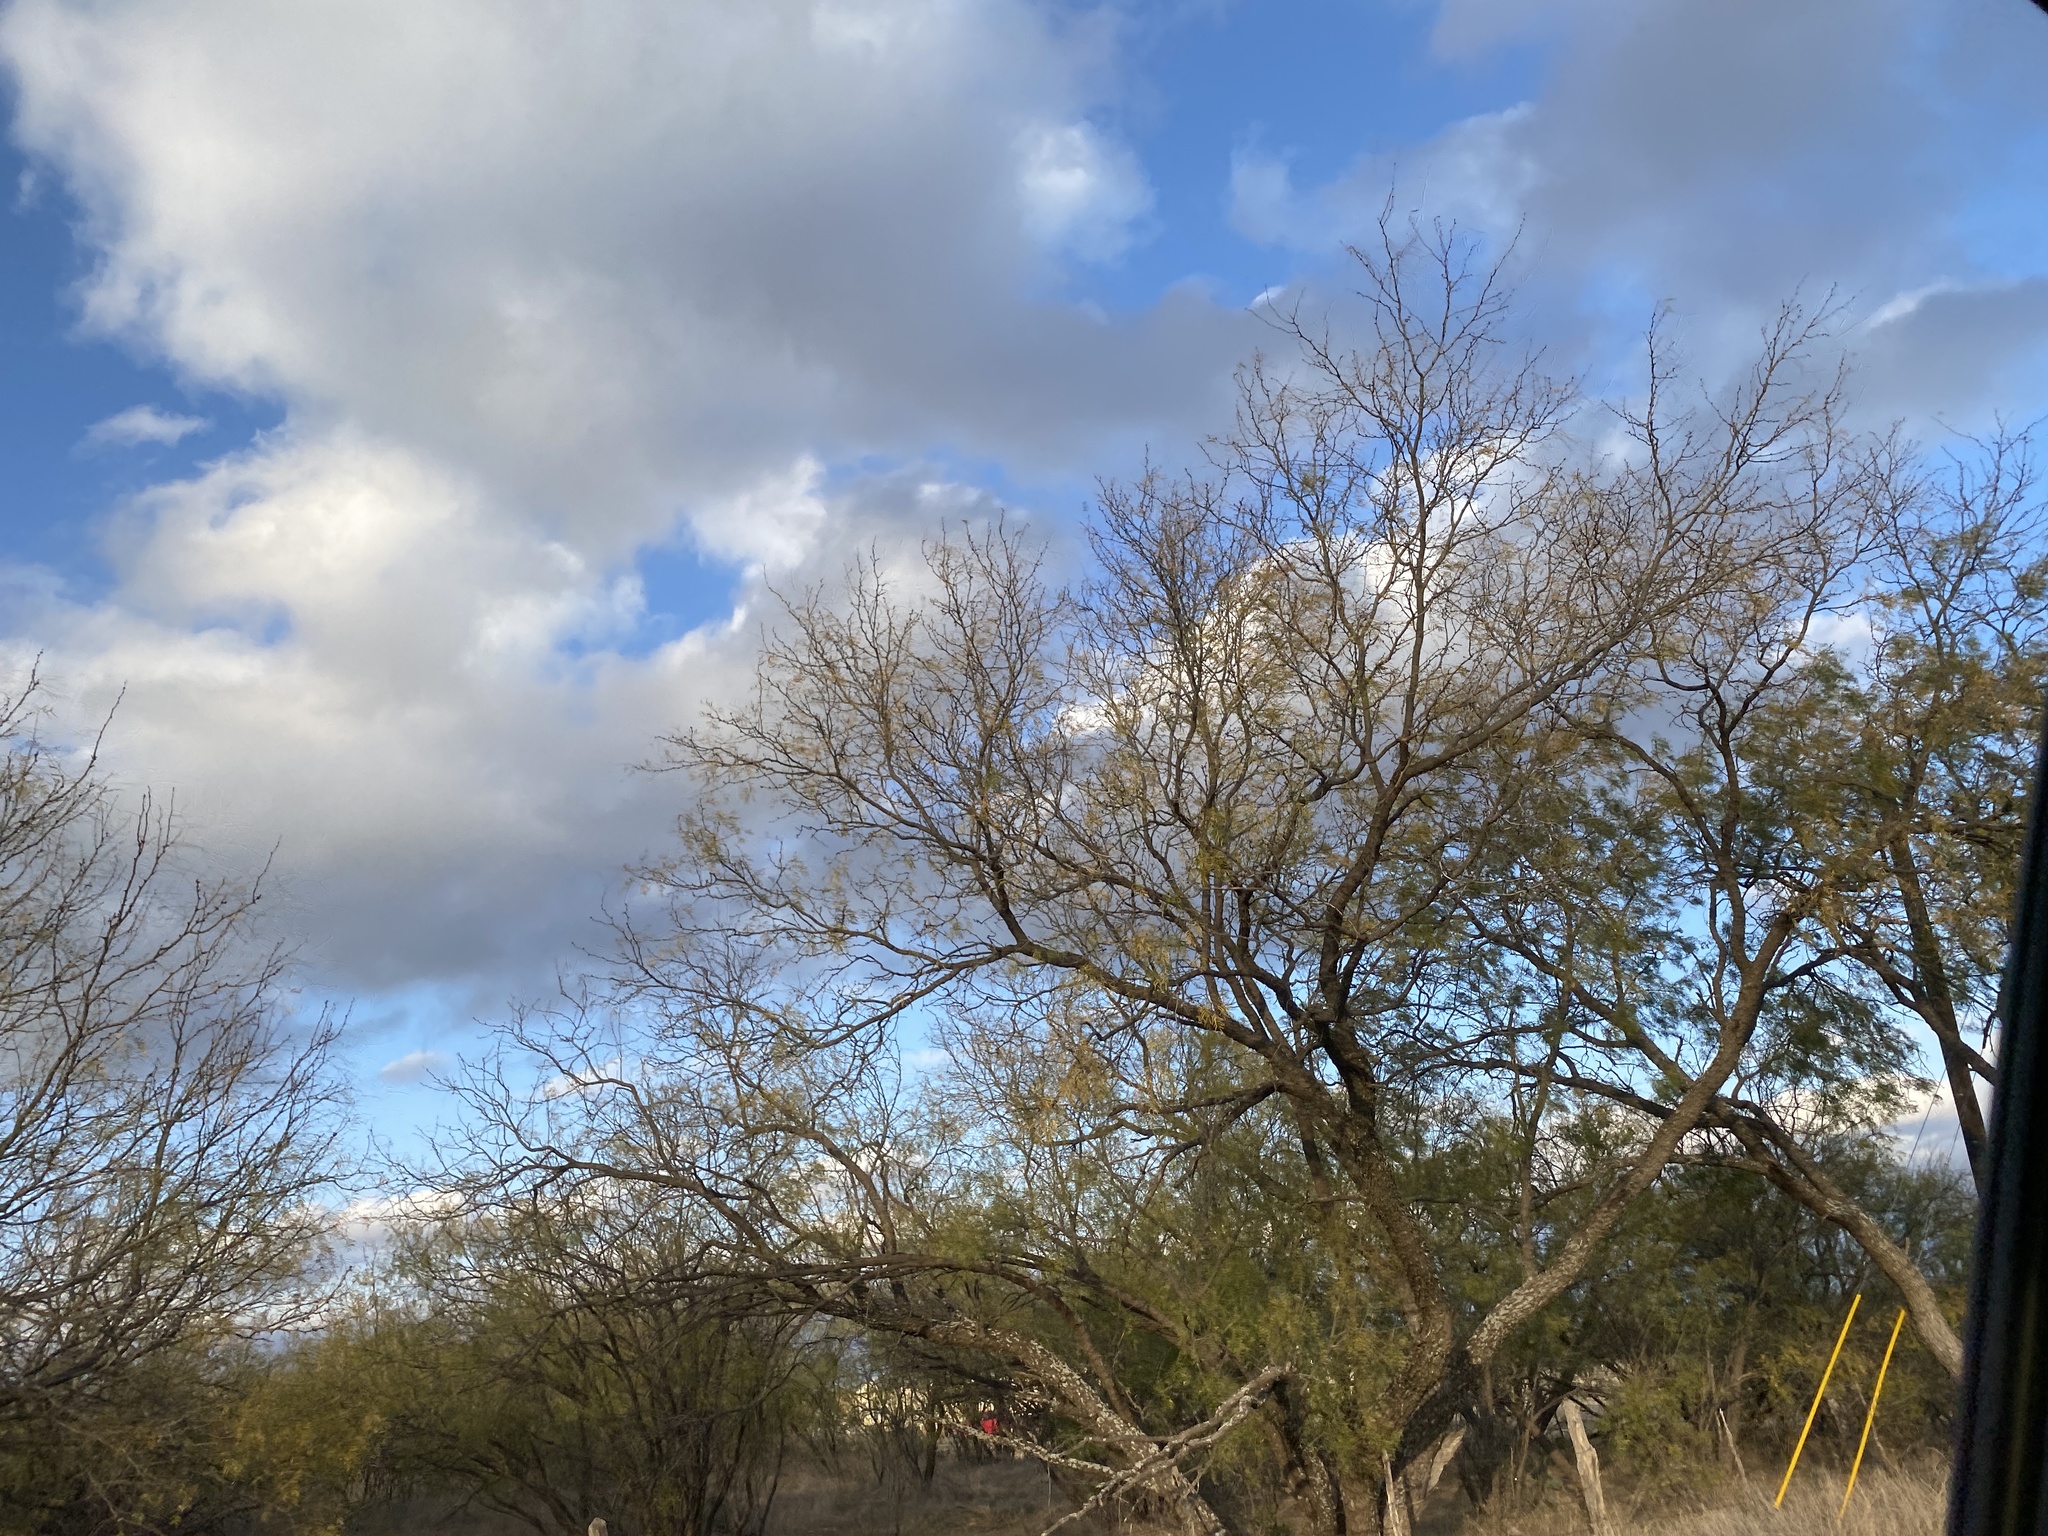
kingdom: Plantae
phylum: Tracheophyta
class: Magnoliopsida
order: Fabales
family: Fabaceae
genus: Prosopis
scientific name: Prosopis glandulosa
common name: Honey mesquite
